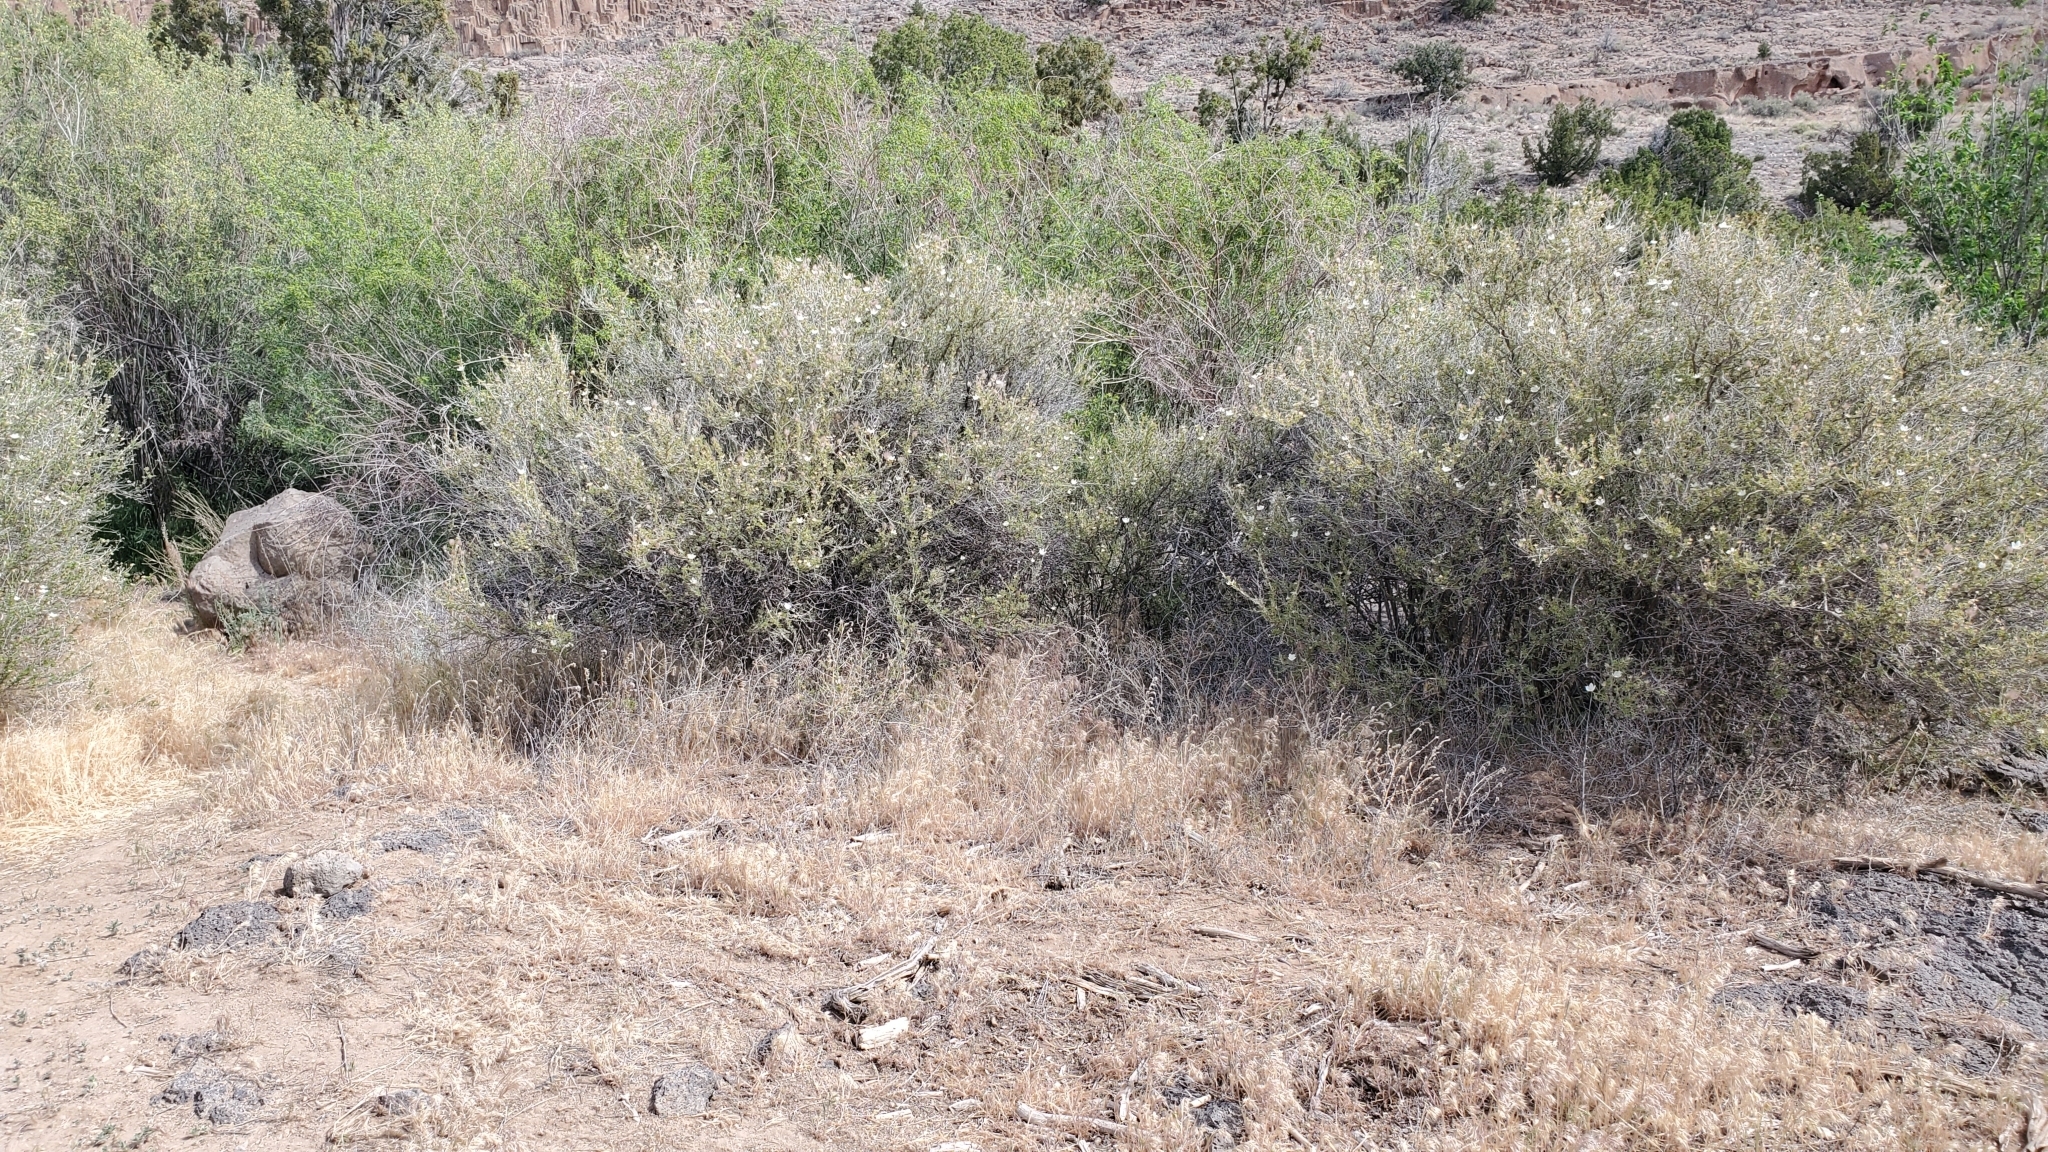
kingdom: Plantae
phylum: Tracheophyta
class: Magnoliopsida
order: Rosales
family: Rosaceae
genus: Fallugia
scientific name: Fallugia paradoxa
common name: Apache-plume
